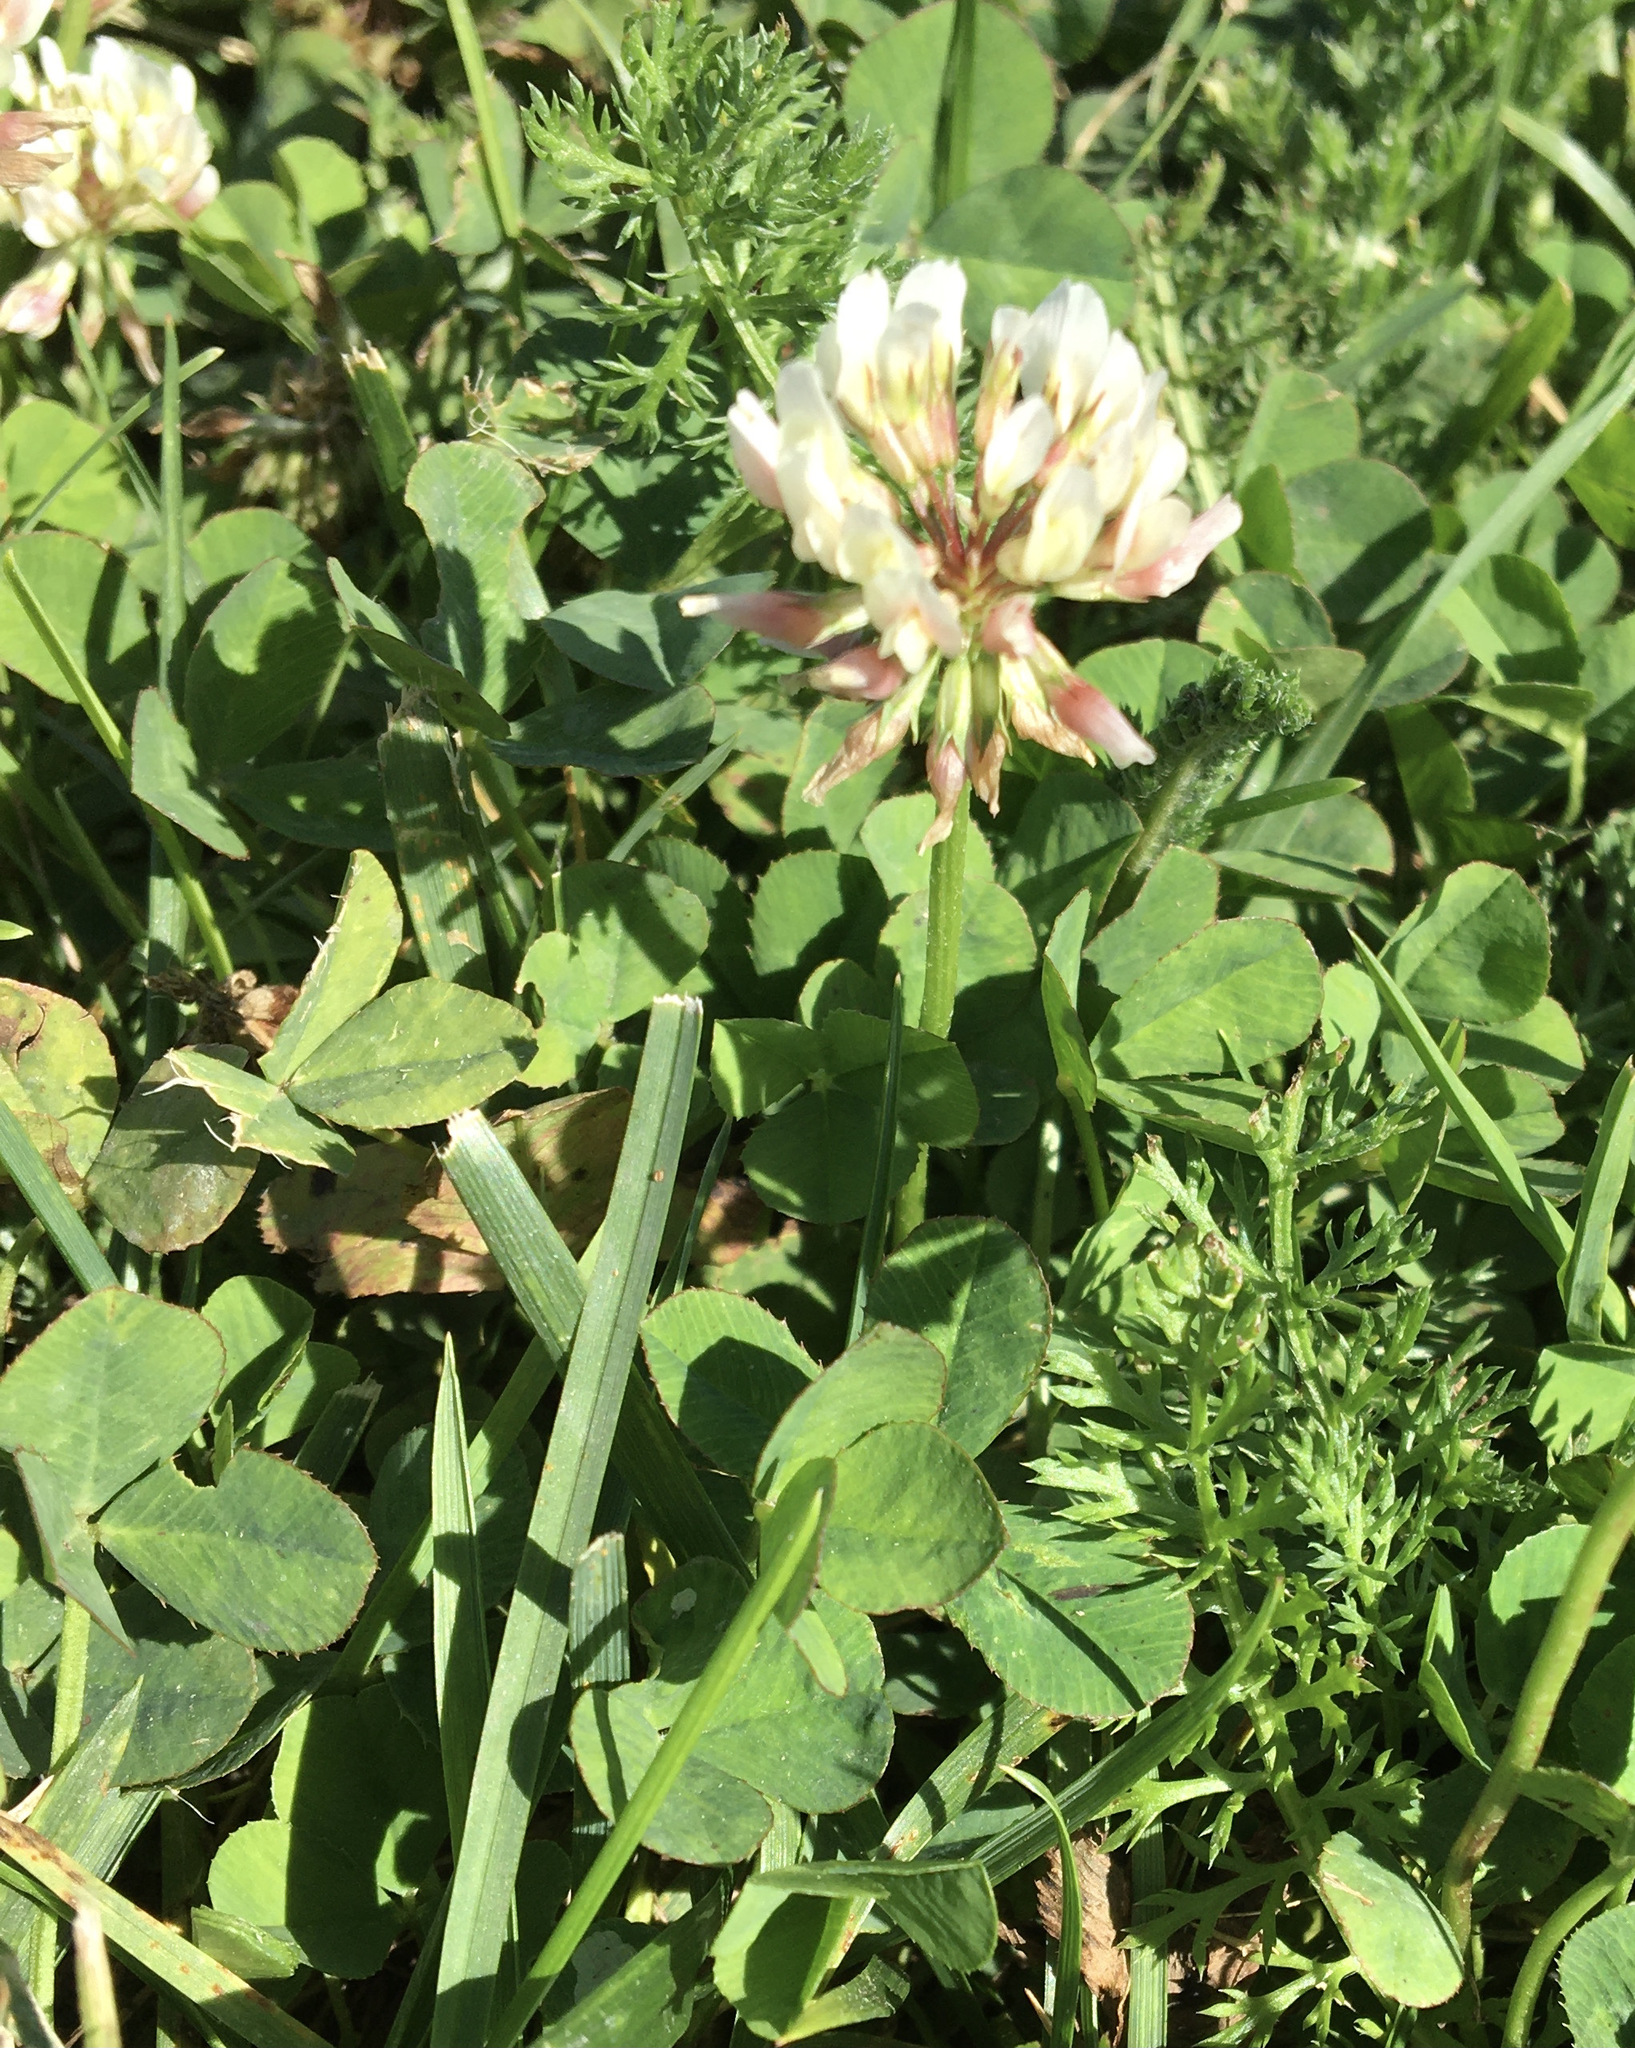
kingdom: Plantae
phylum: Tracheophyta
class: Magnoliopsida
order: Fabales
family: Fabaceae
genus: Trifolium
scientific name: Trifolium repens
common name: White clover
